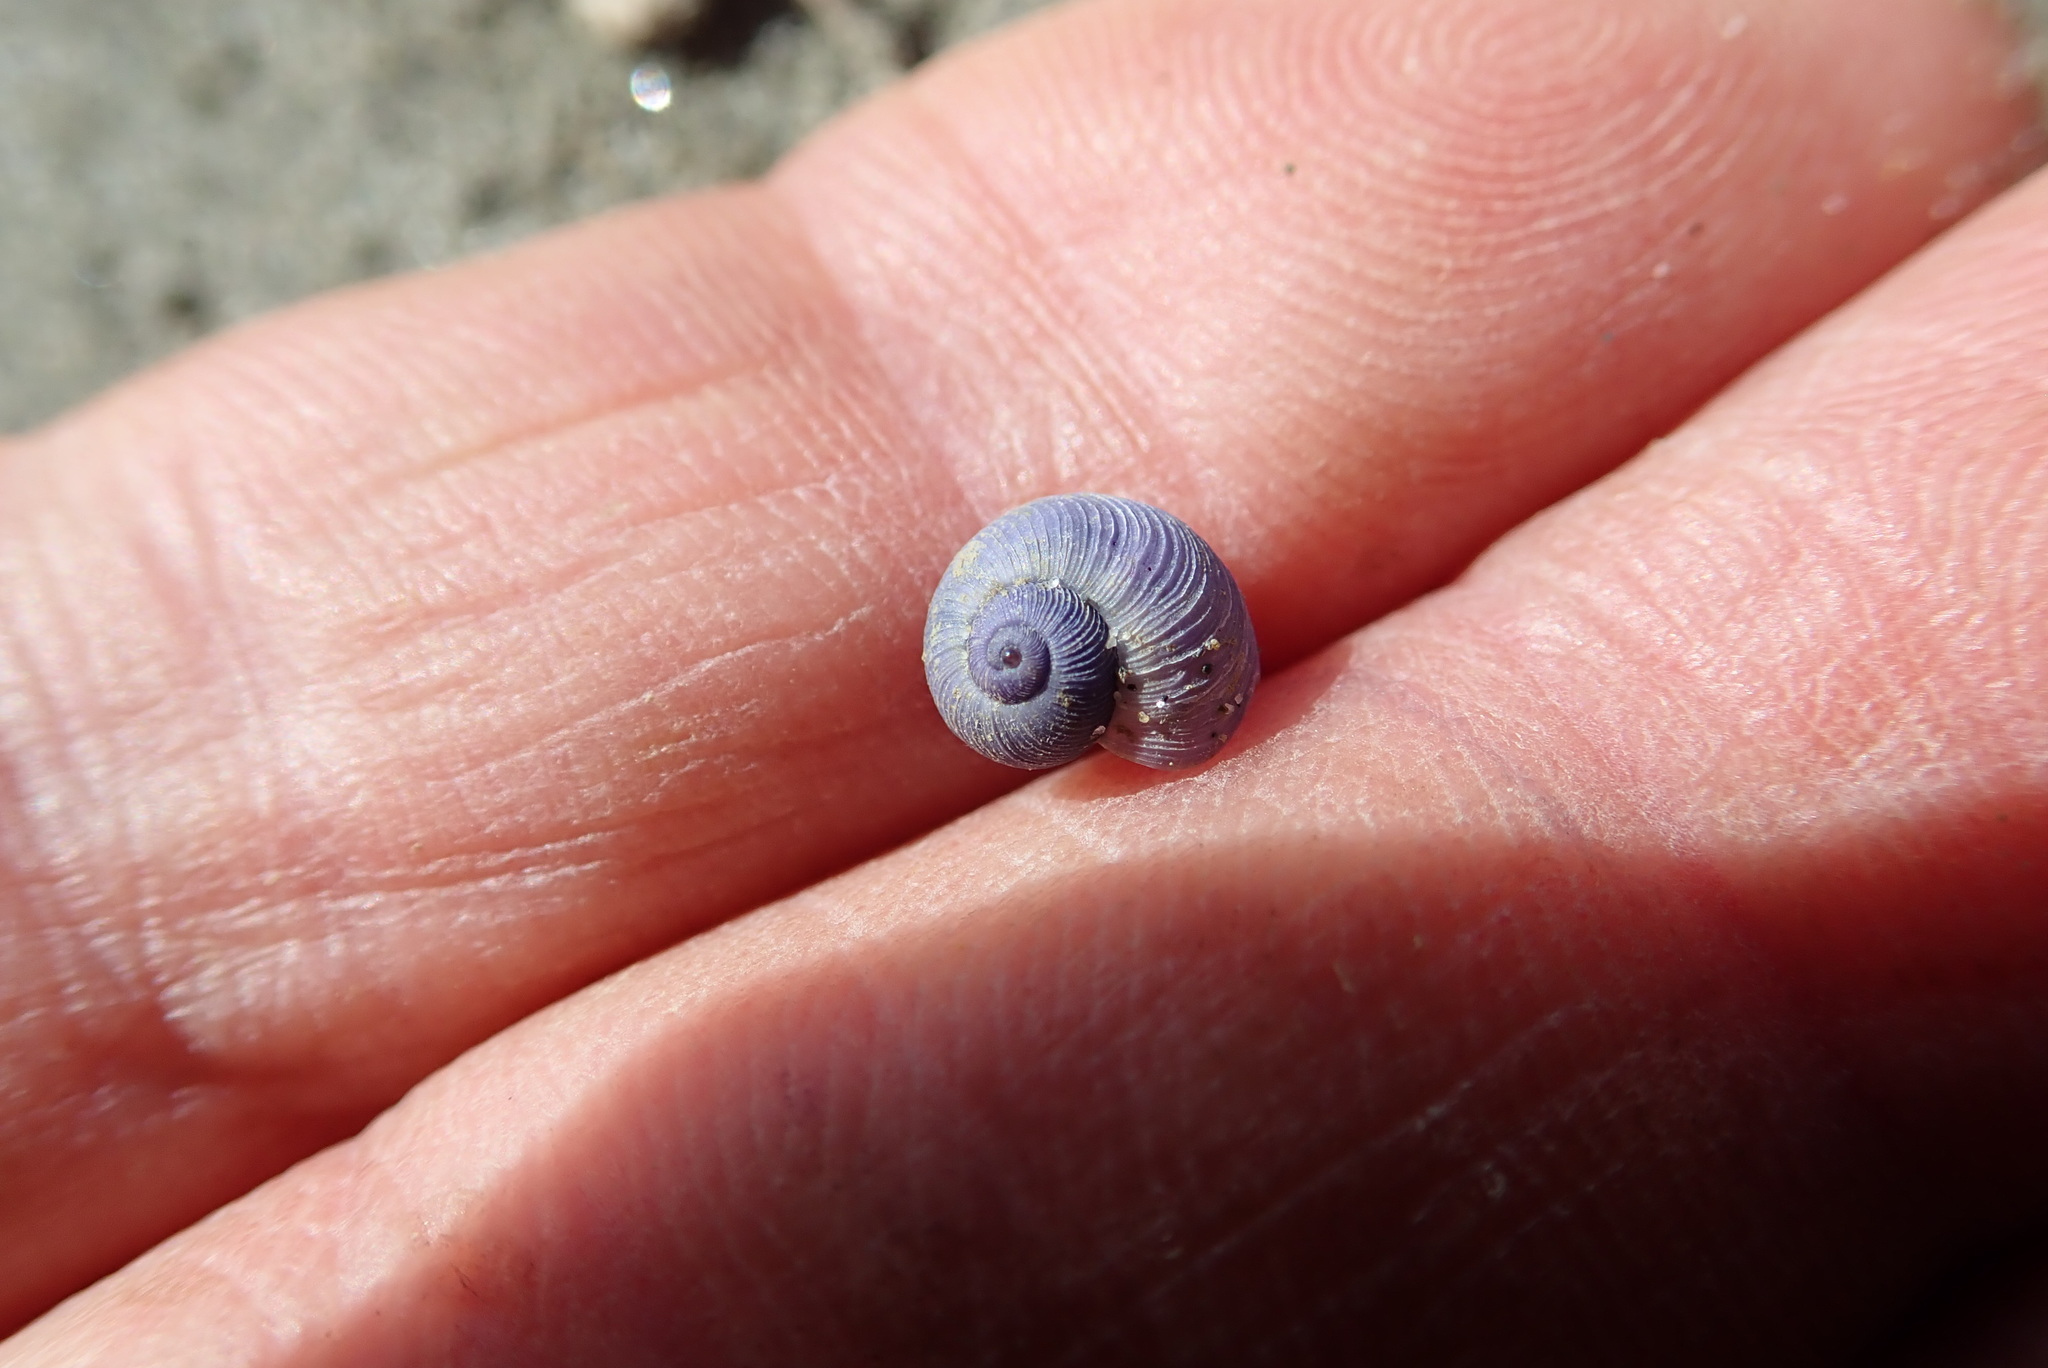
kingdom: Animalia
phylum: Mollusca
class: Gastropoda
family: Epitoniidae
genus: Janthina
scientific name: Janthina exigua
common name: Dwarf janthina
